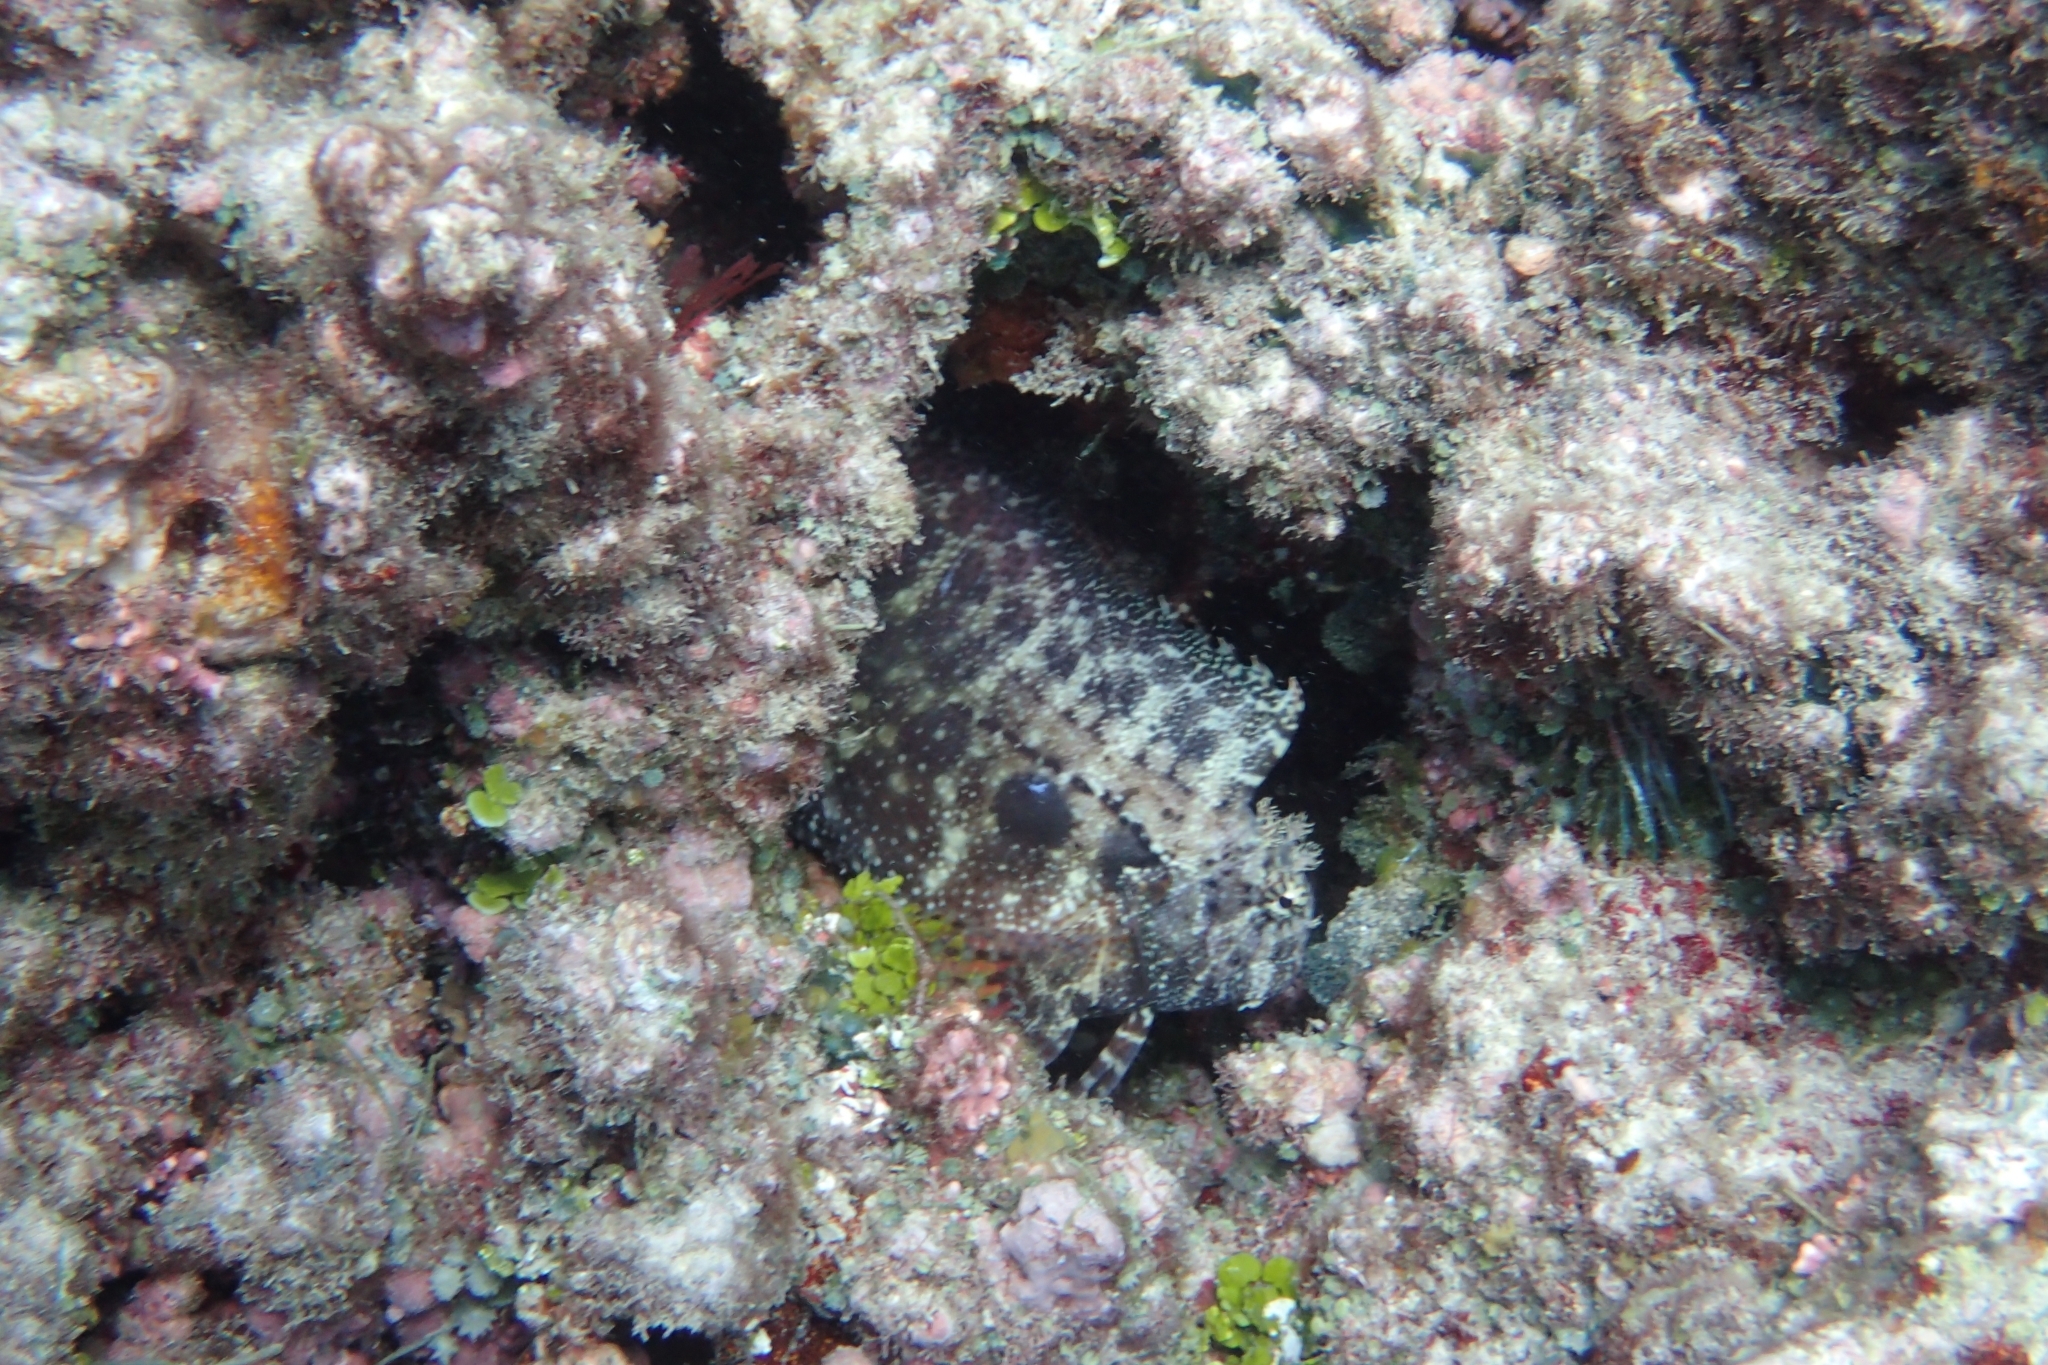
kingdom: Animalia
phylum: Chordata
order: Perciformes
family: Blenniidae
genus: Salarias
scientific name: Salarias ceramensis
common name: Seram blenny
